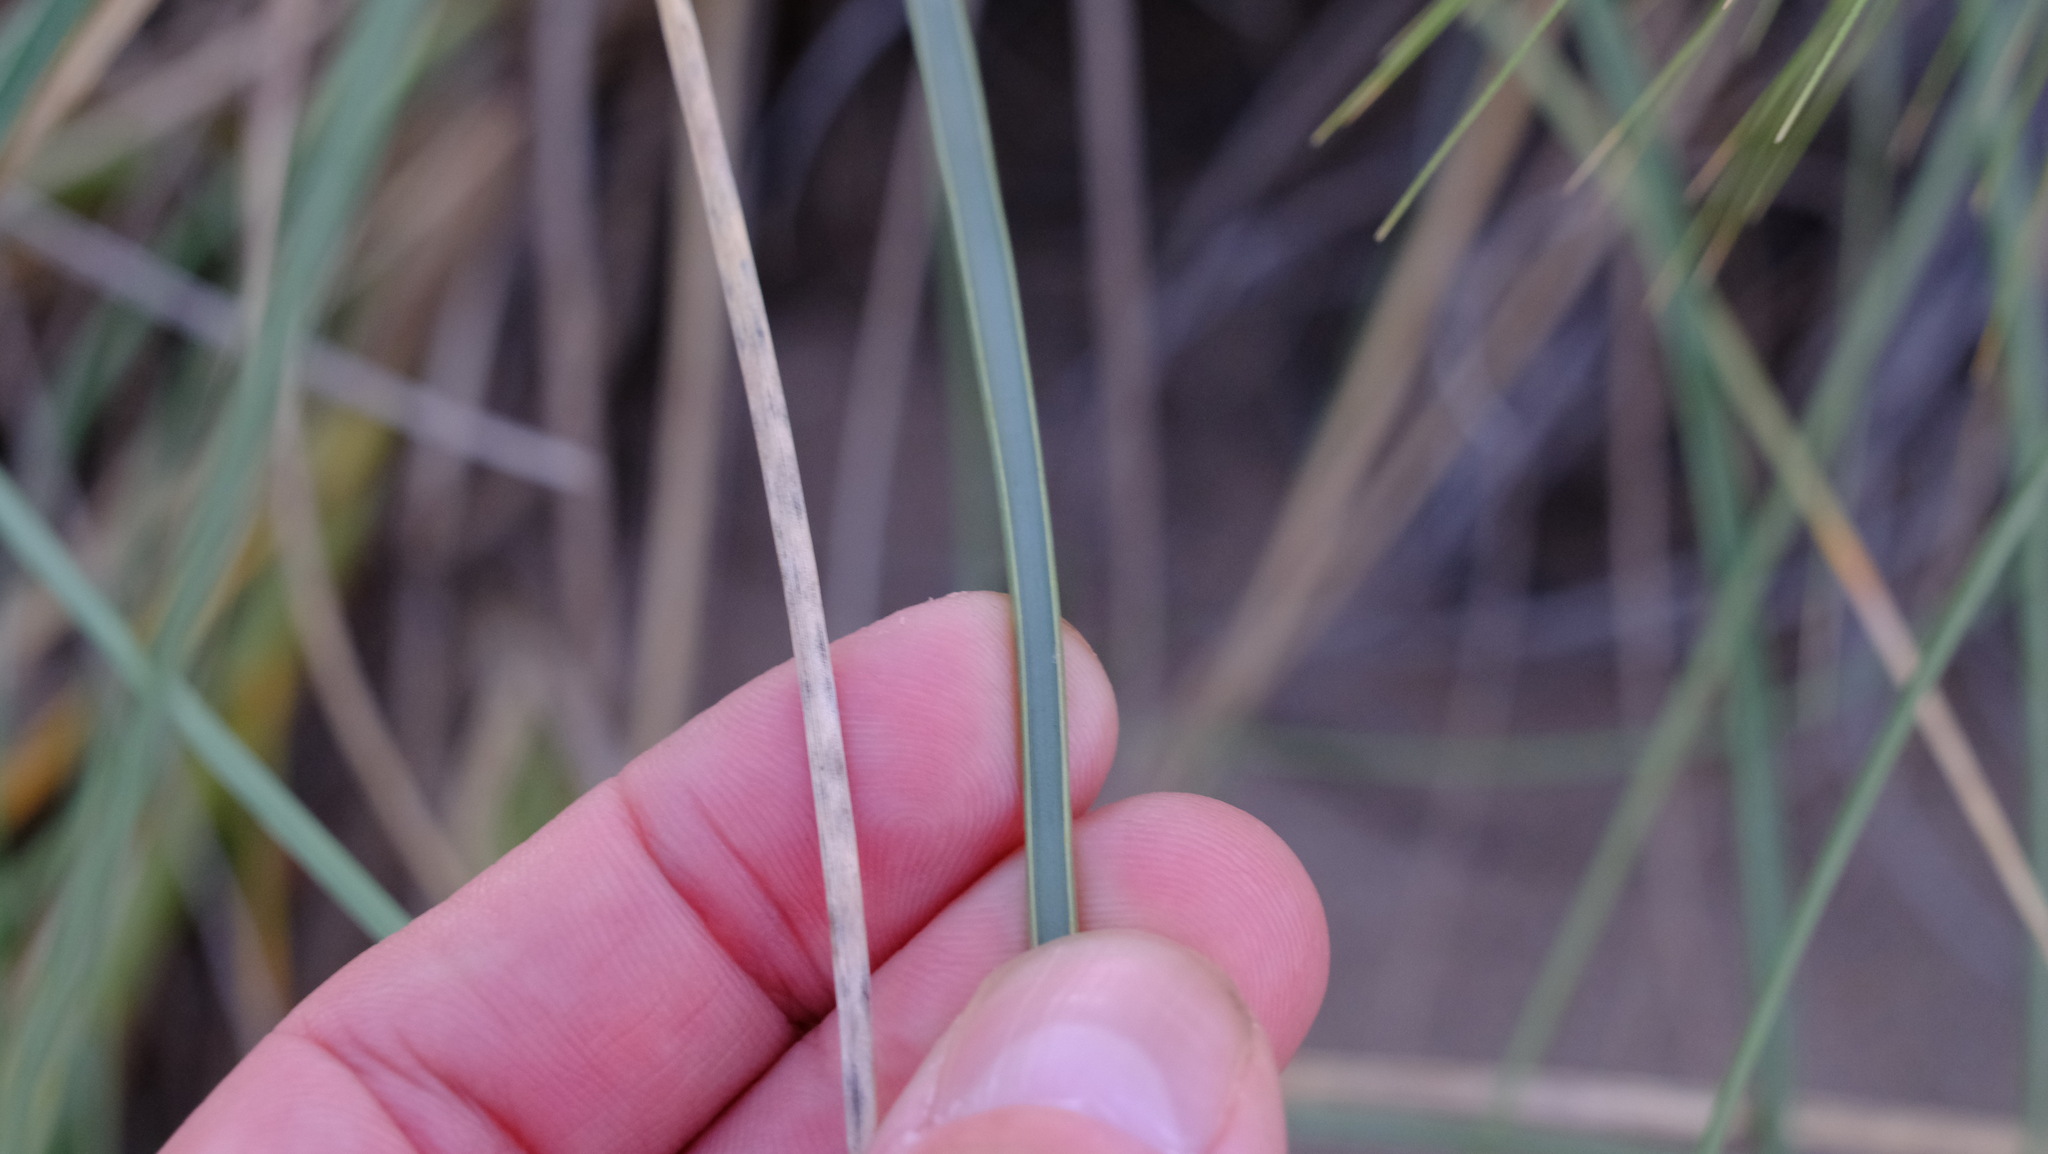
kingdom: Plantae
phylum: Tracheophyta
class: Liliopsida
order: Poales
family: Poaceae
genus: Spinifex
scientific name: Spinifex longifolius
